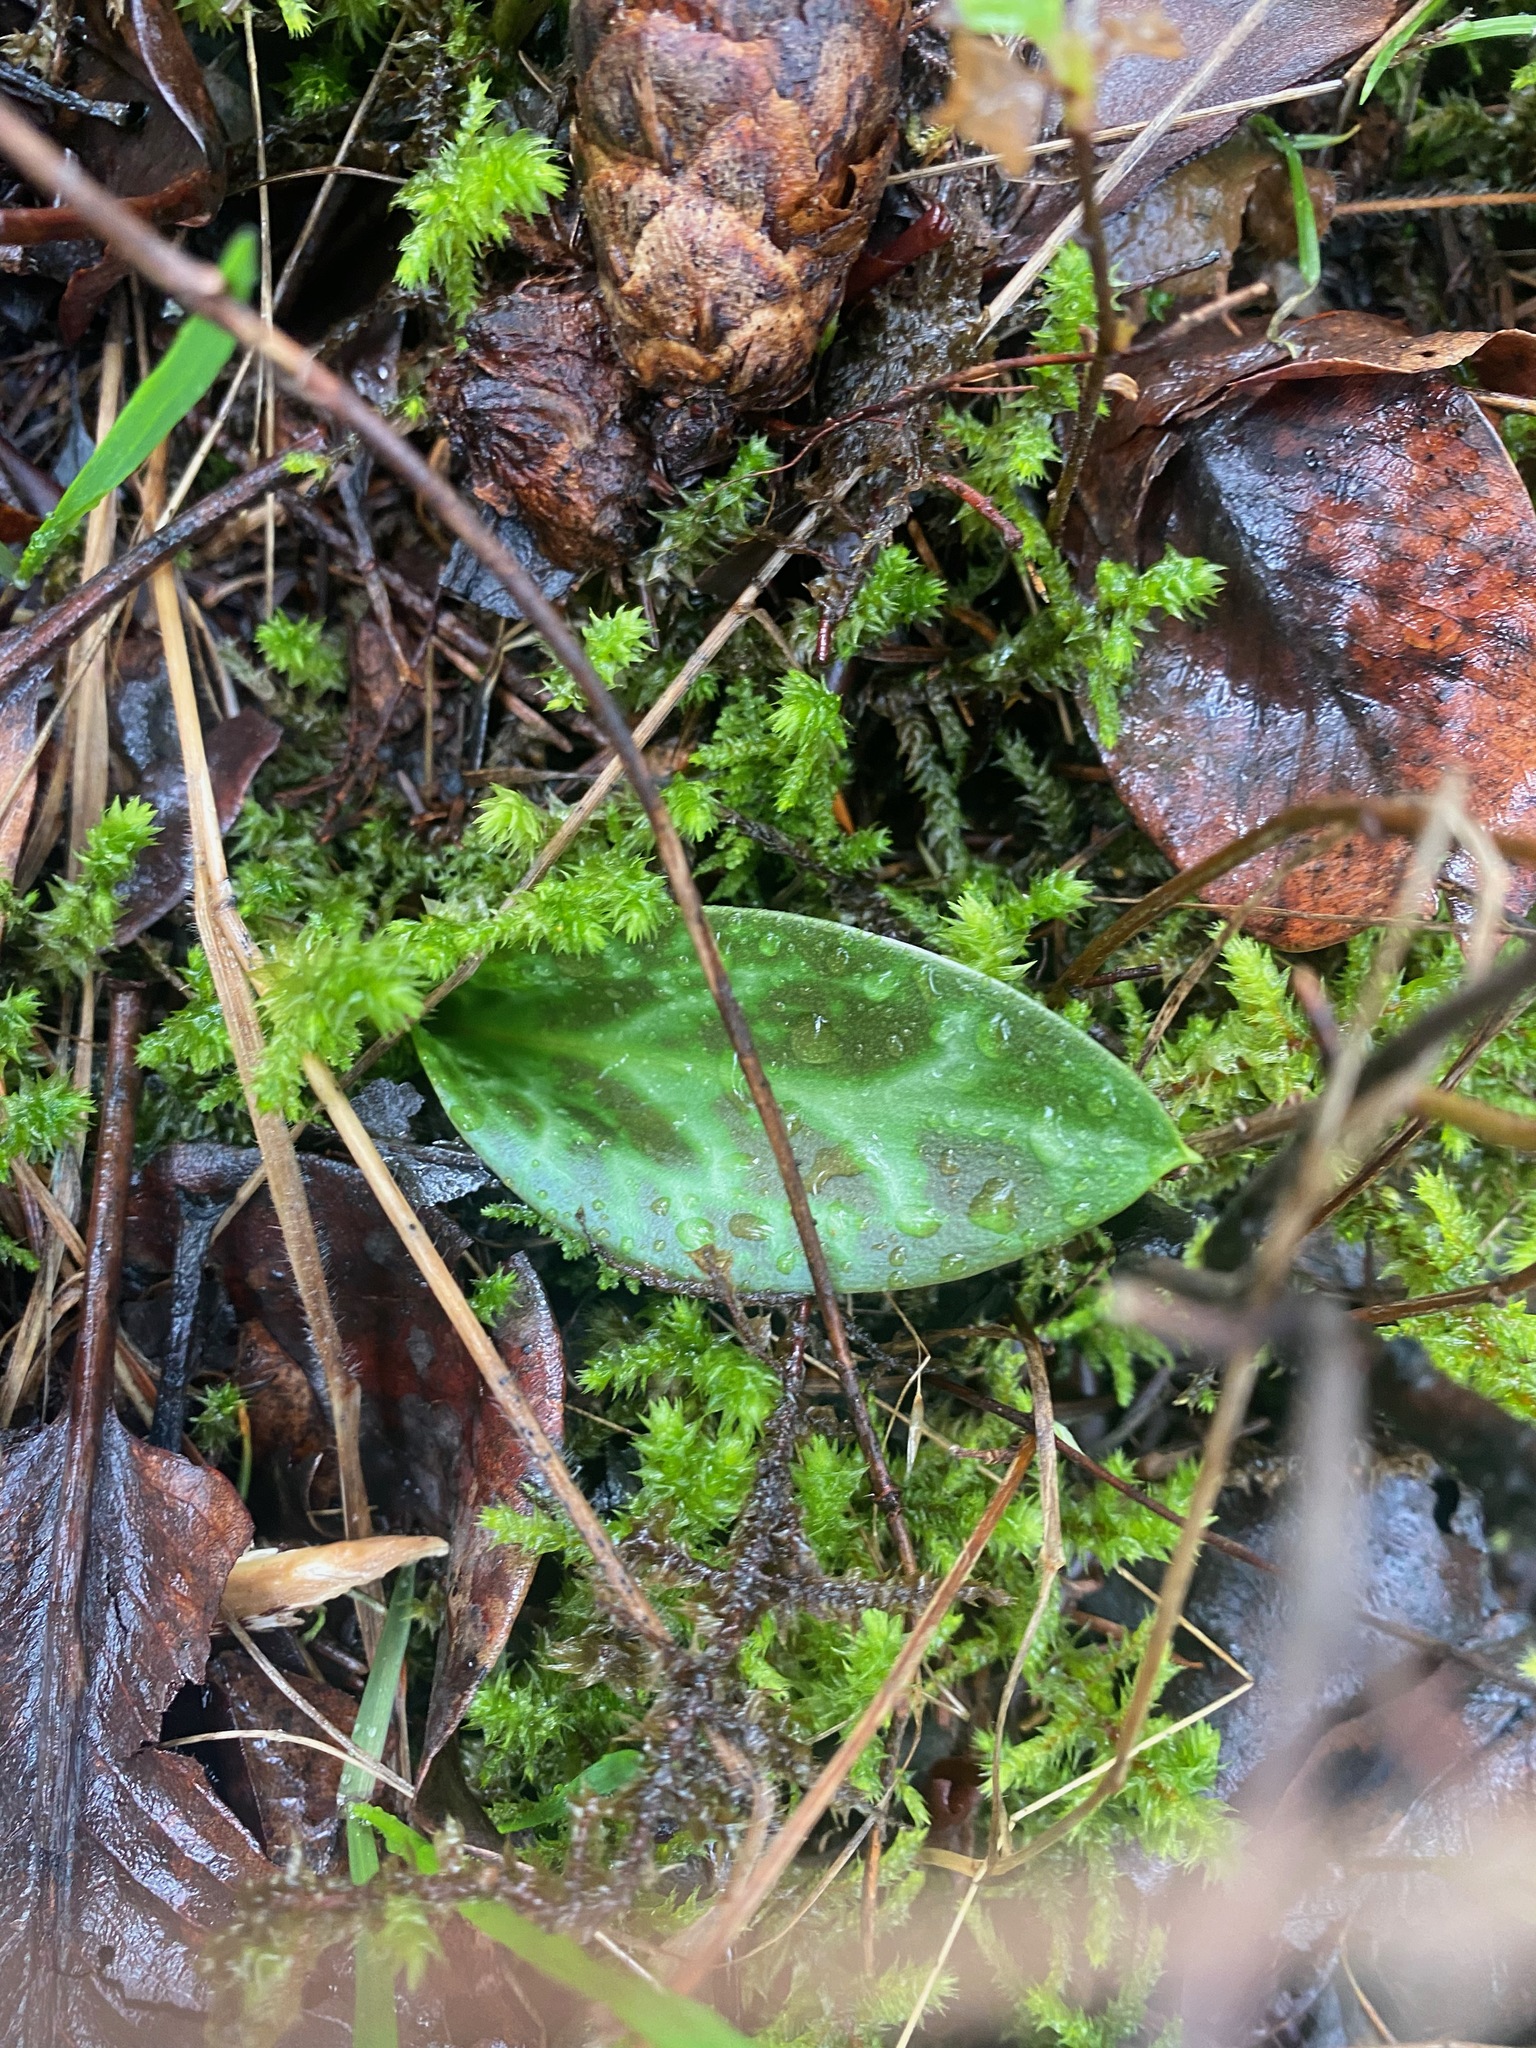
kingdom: Plantae
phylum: Tracheophyta
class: Liliopsida
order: Liliales
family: Liliaceae
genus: Erythronium
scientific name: Erythronium oregonum
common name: Giant adder's-tongue
